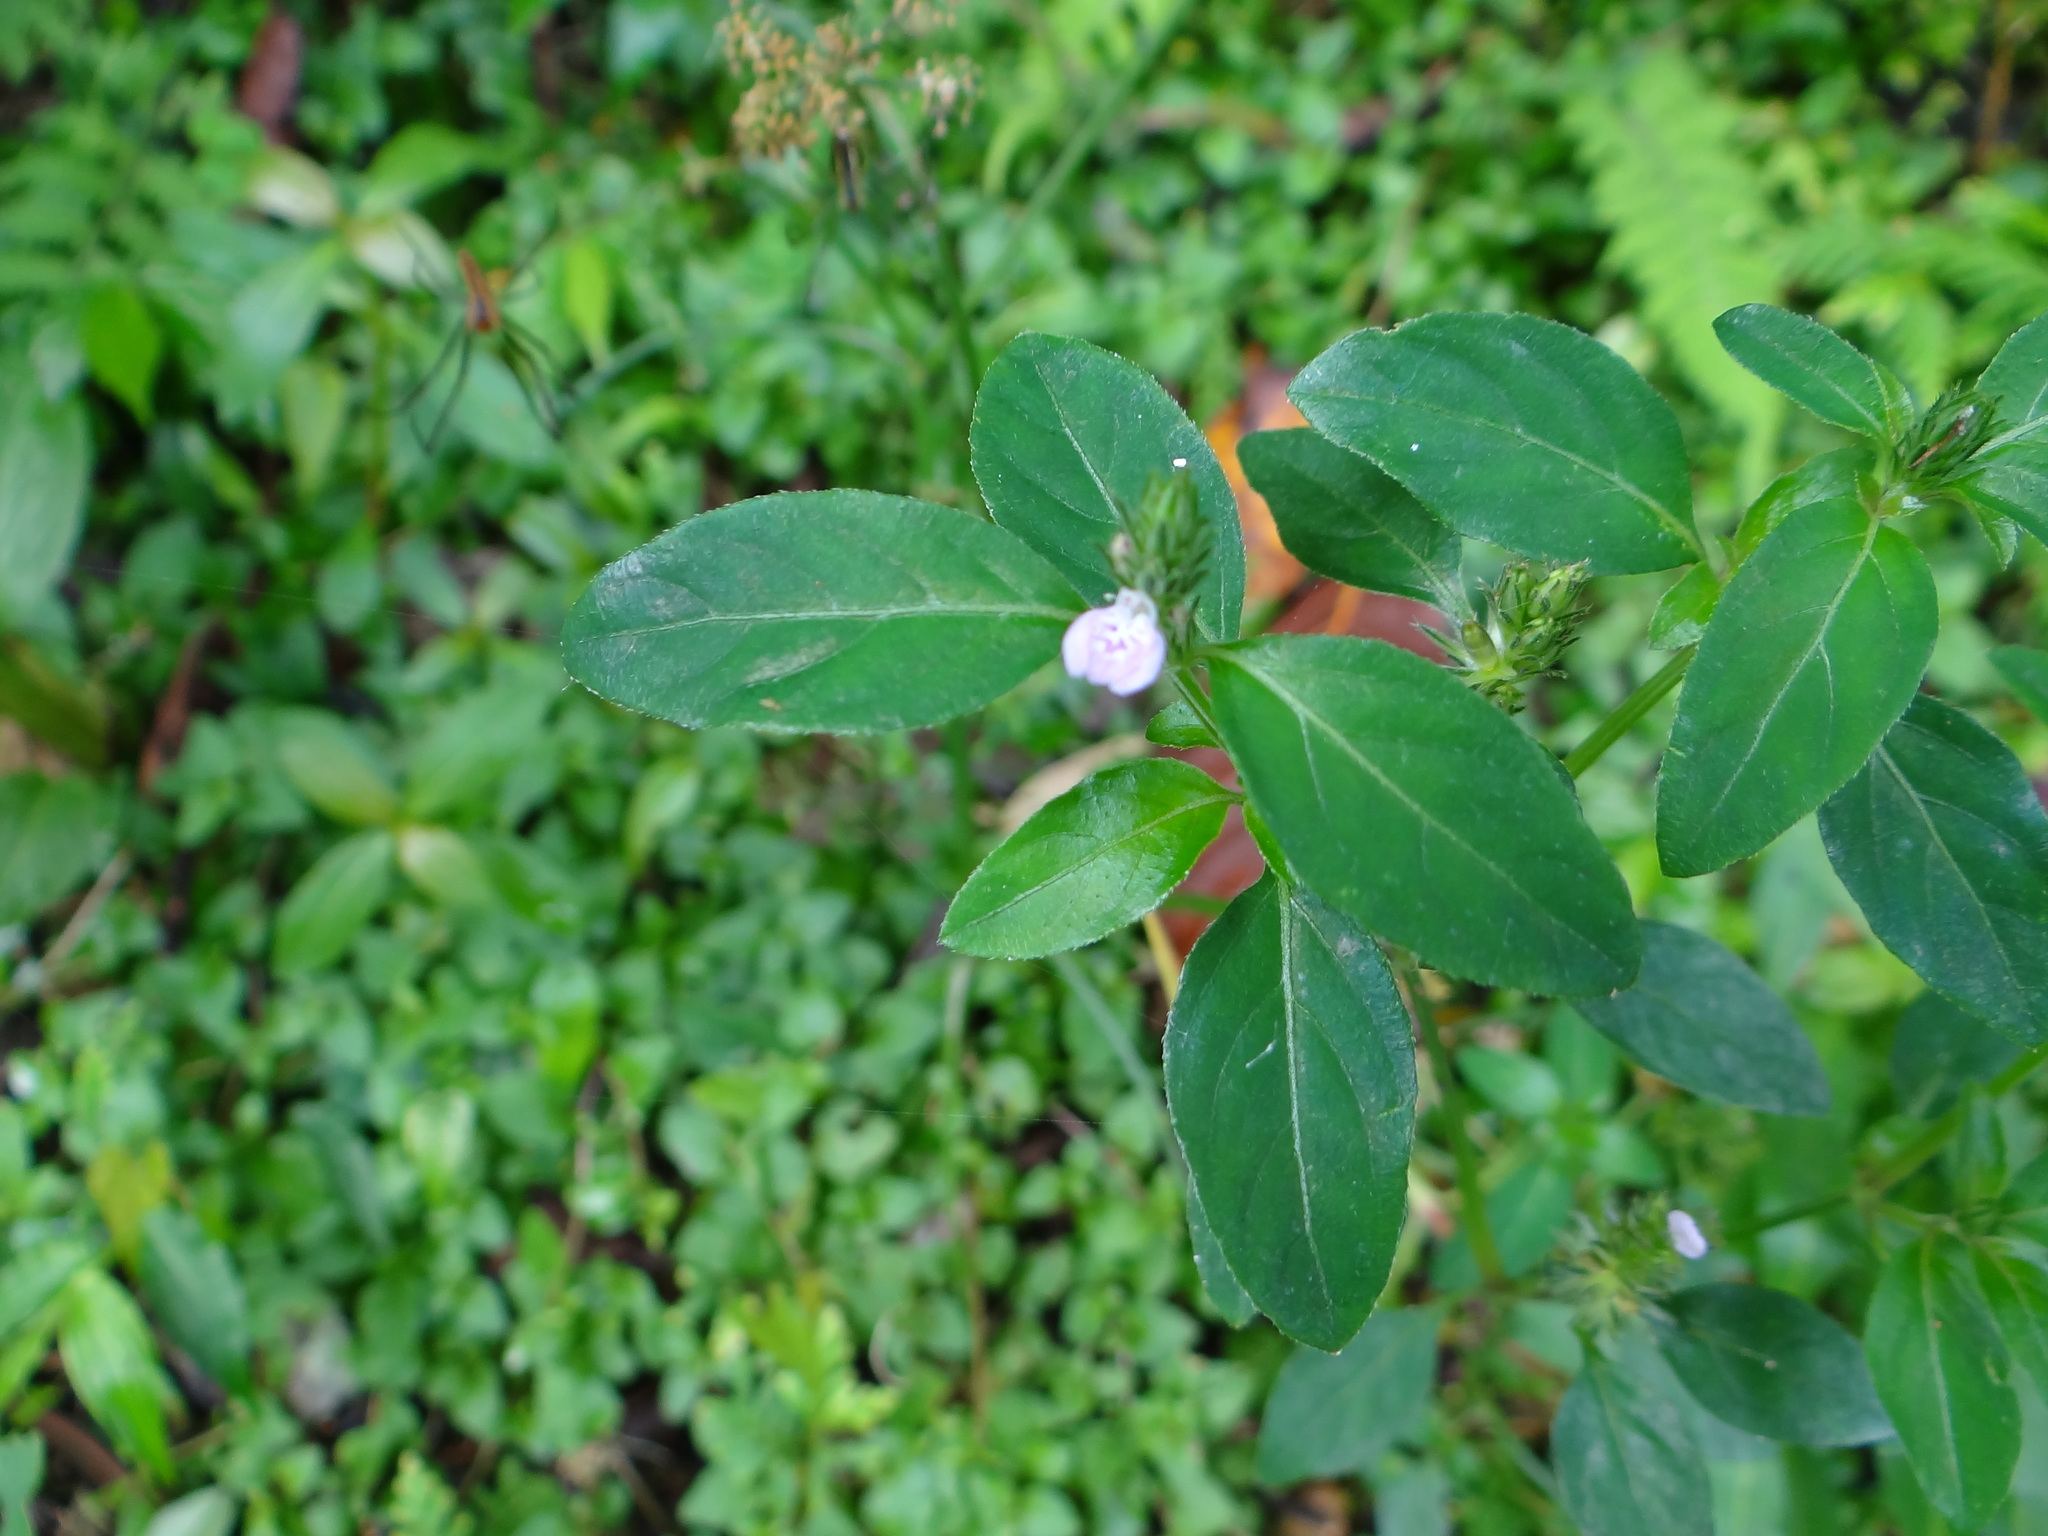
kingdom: Plantae
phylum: Tracheophyta
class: Magnoliopsida
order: Lamiales
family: Acanthaceae
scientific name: Acanthaceae
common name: Acanthaceae
